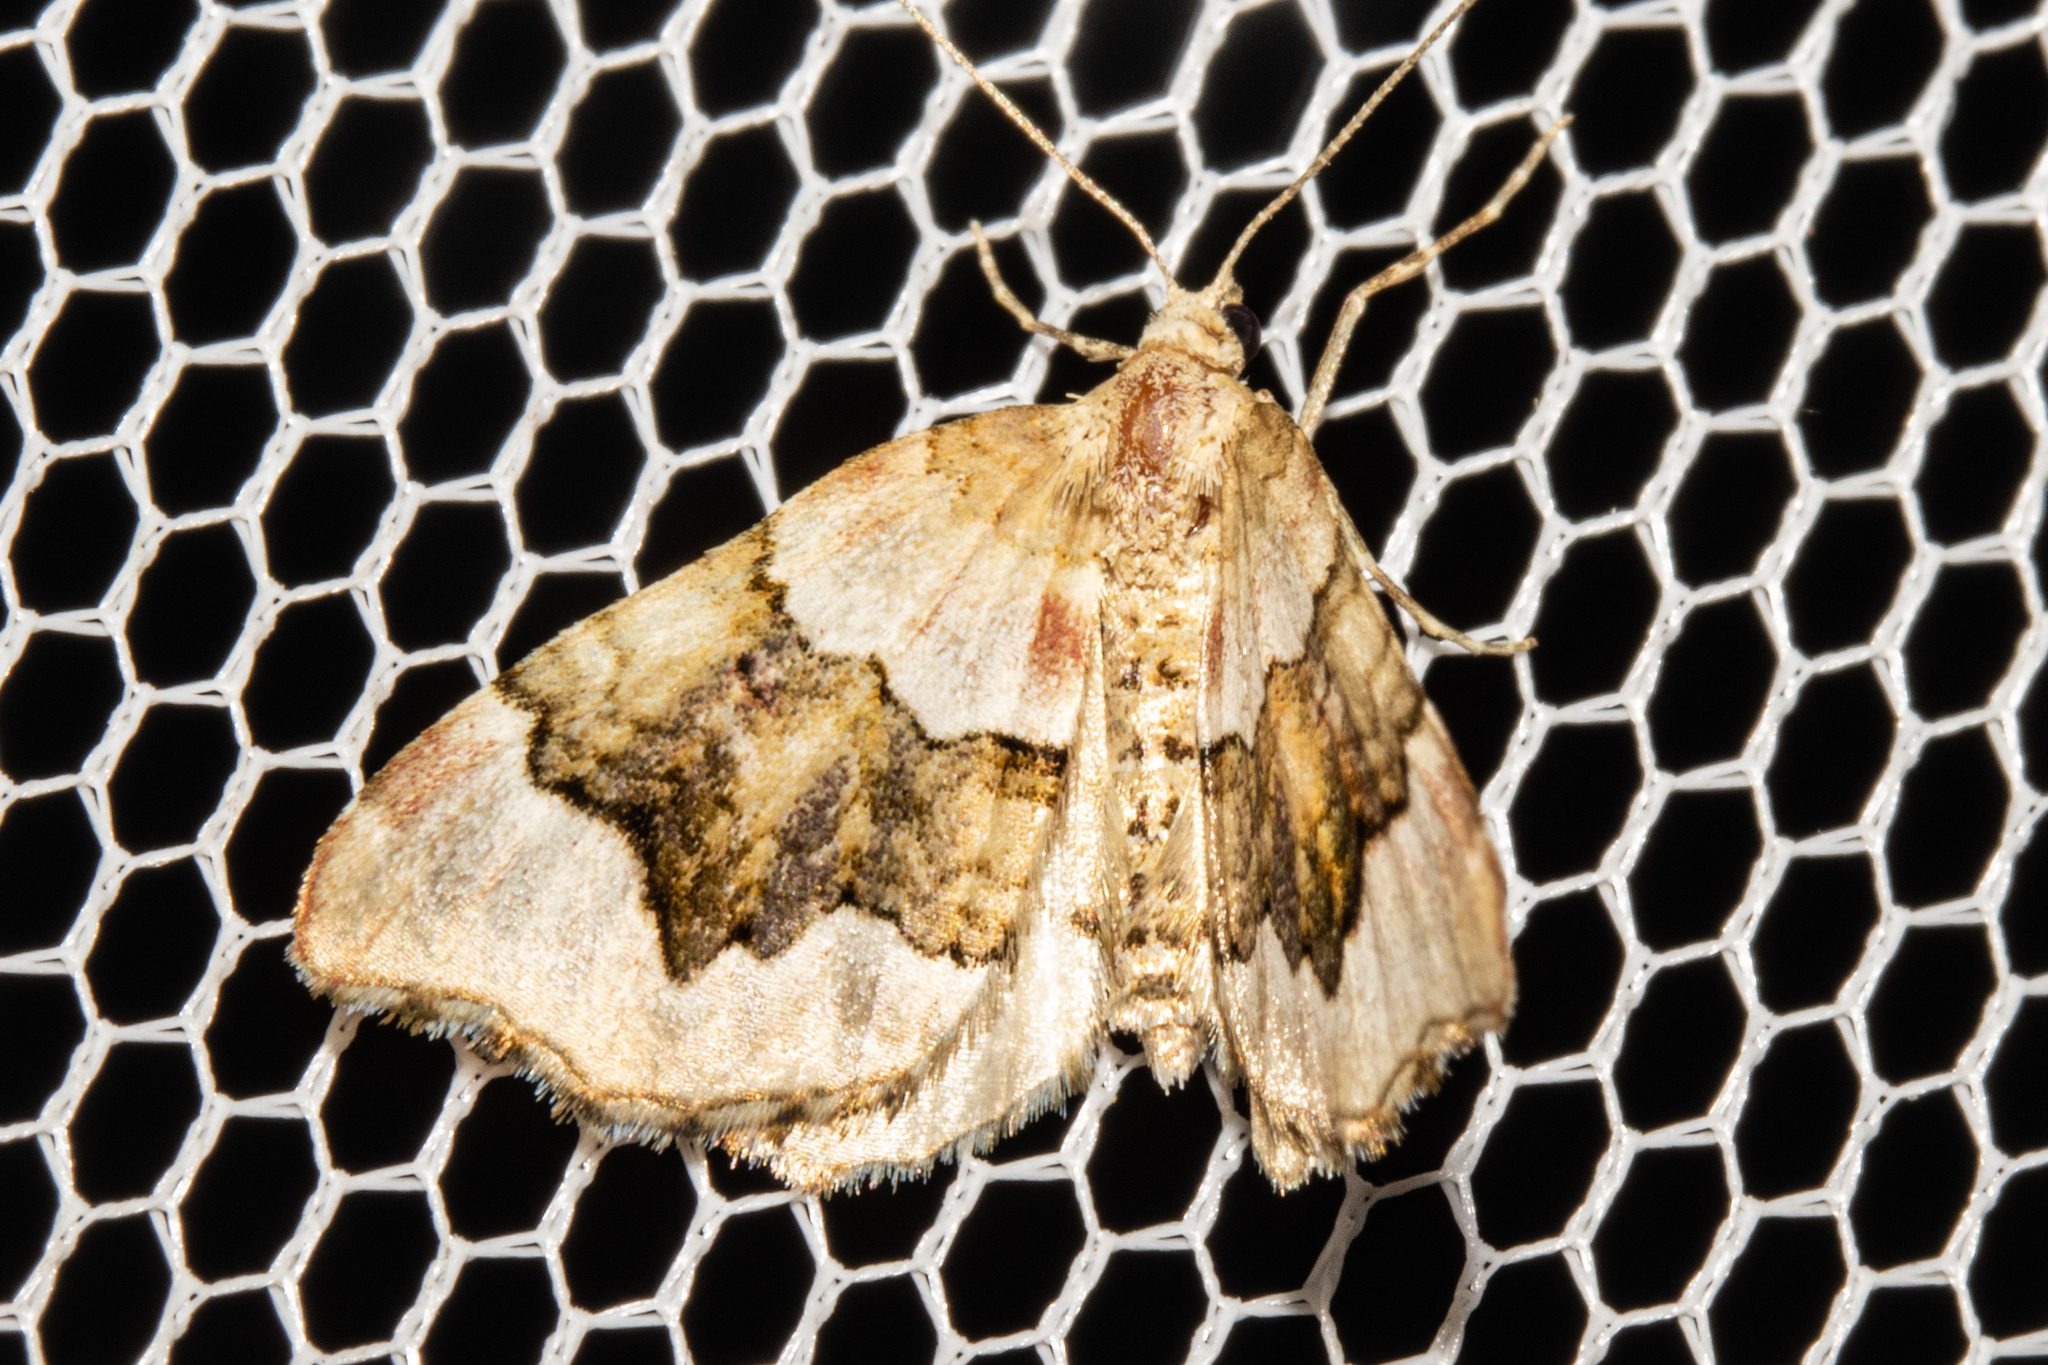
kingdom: Animalia
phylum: Arthropoda
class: Insecta
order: Lepidoptera
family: Geometridae
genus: Helastia
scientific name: Helastia cymozeucta
